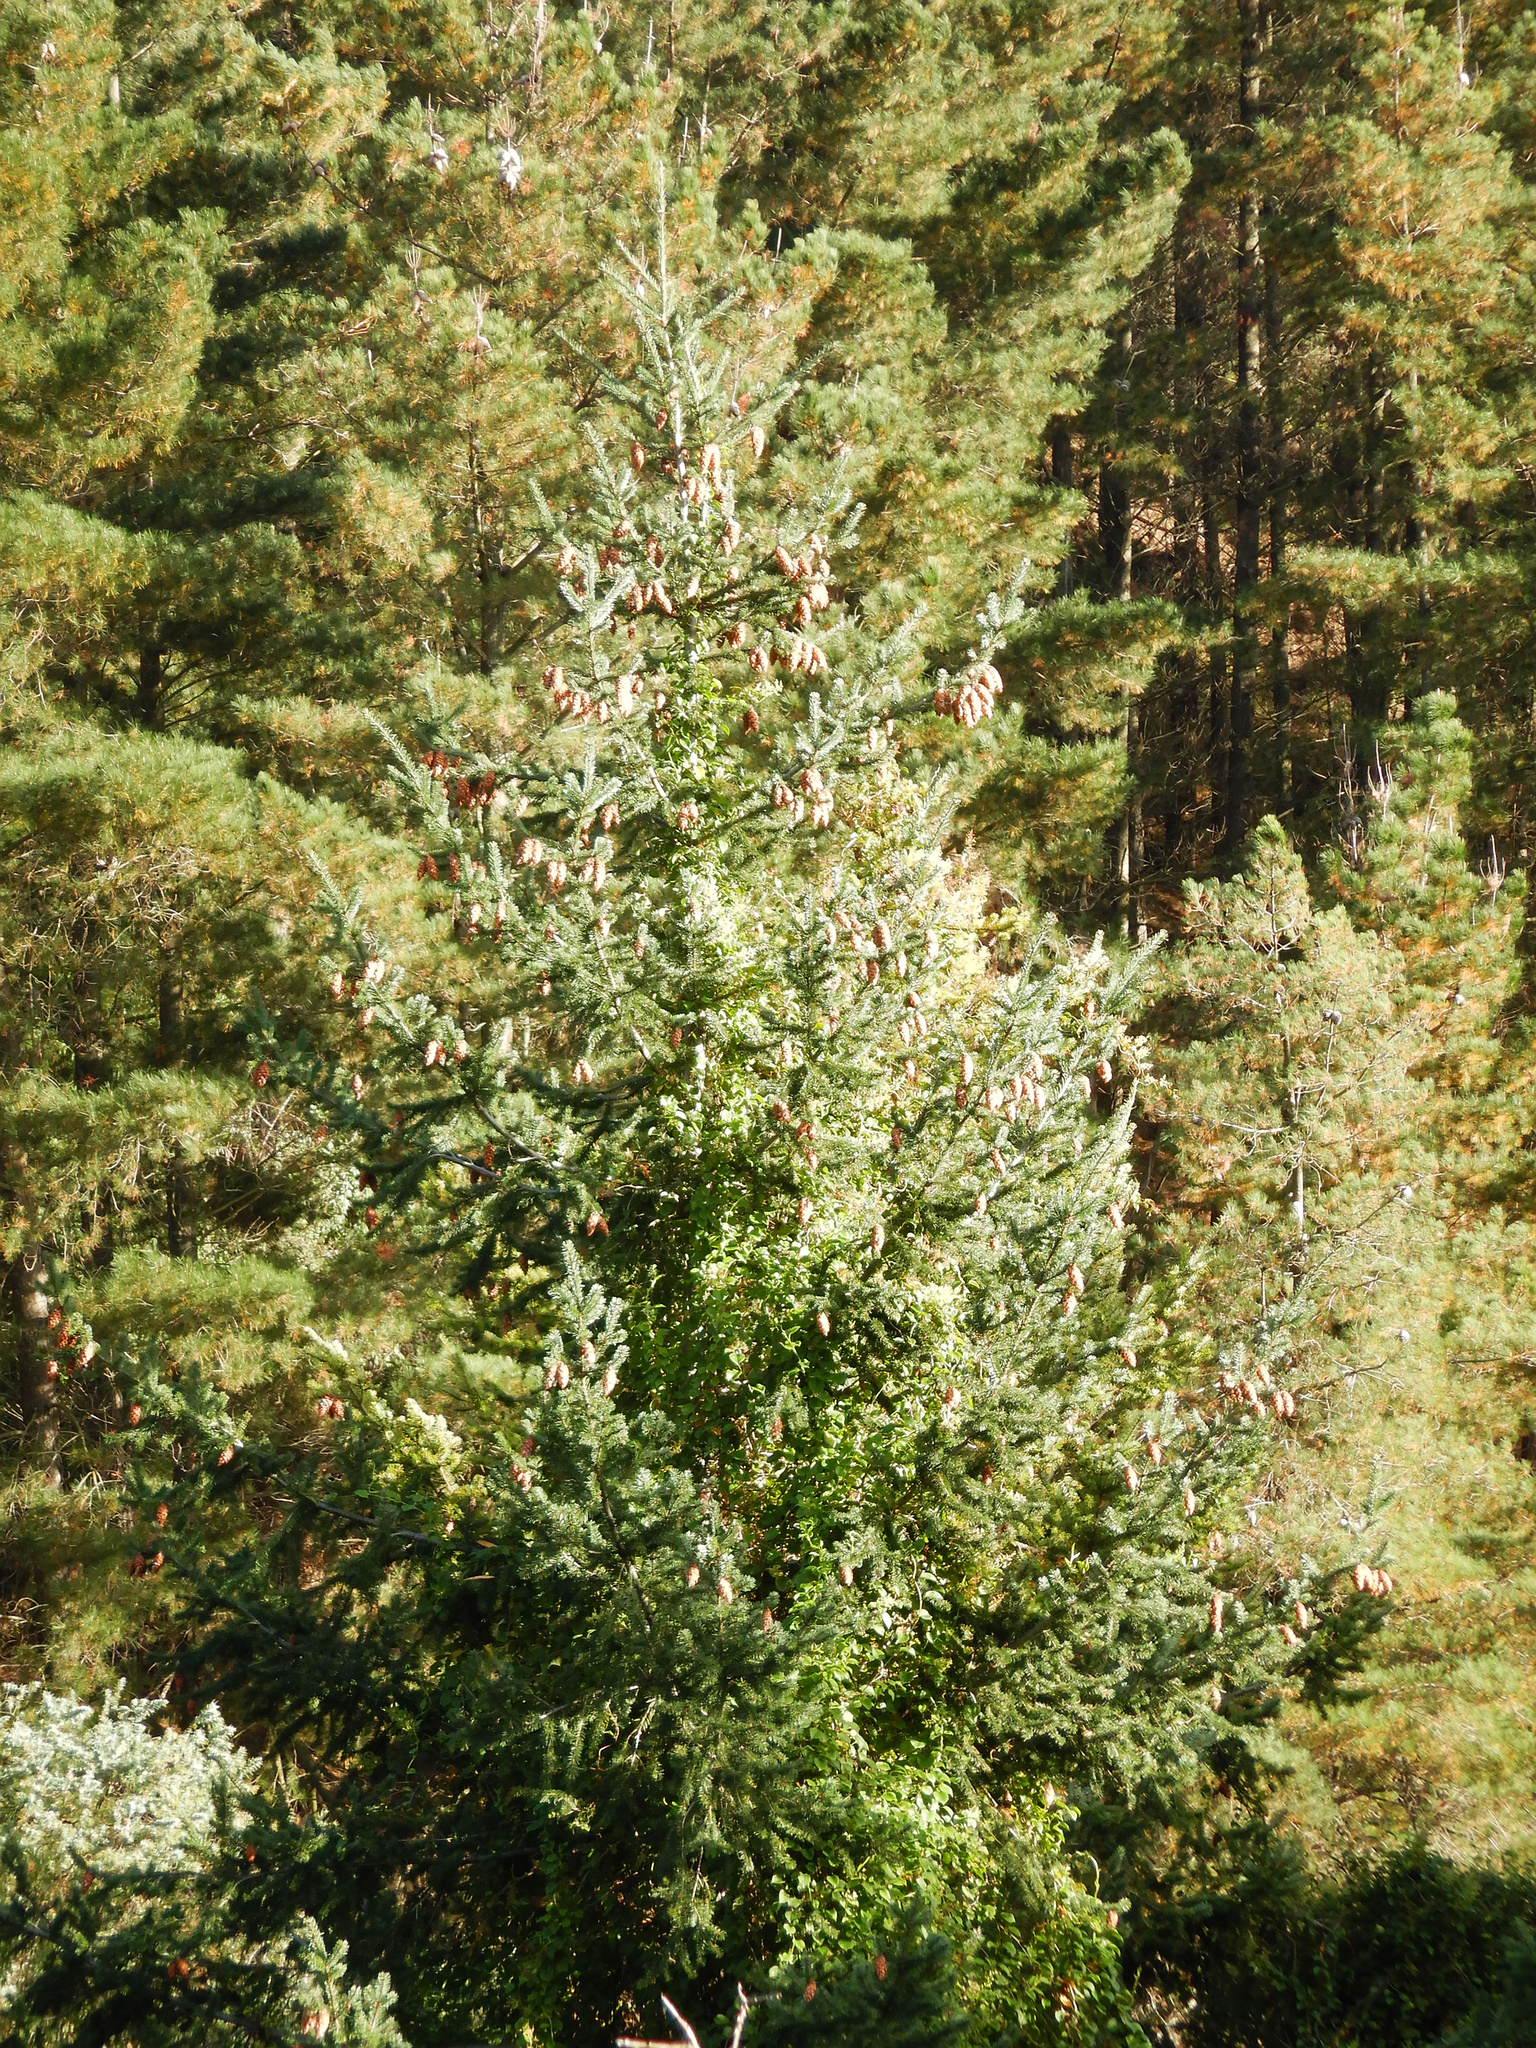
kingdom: Plantae
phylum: Tracheophyta
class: Pinopsida
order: Pinales
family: Pinaceae
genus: Pseudotsuga
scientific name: Pseudotsuga menziesii
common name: Douglas fir
